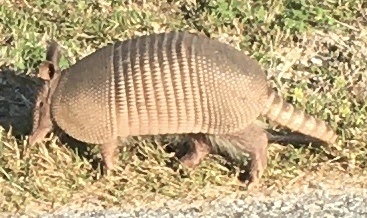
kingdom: Animalia
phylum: Chordata
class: Mammalia
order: Cingulata
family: Dasypodidae
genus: Dasypus
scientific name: Dasypus novemcinctus
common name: Nine-banded armadillo
